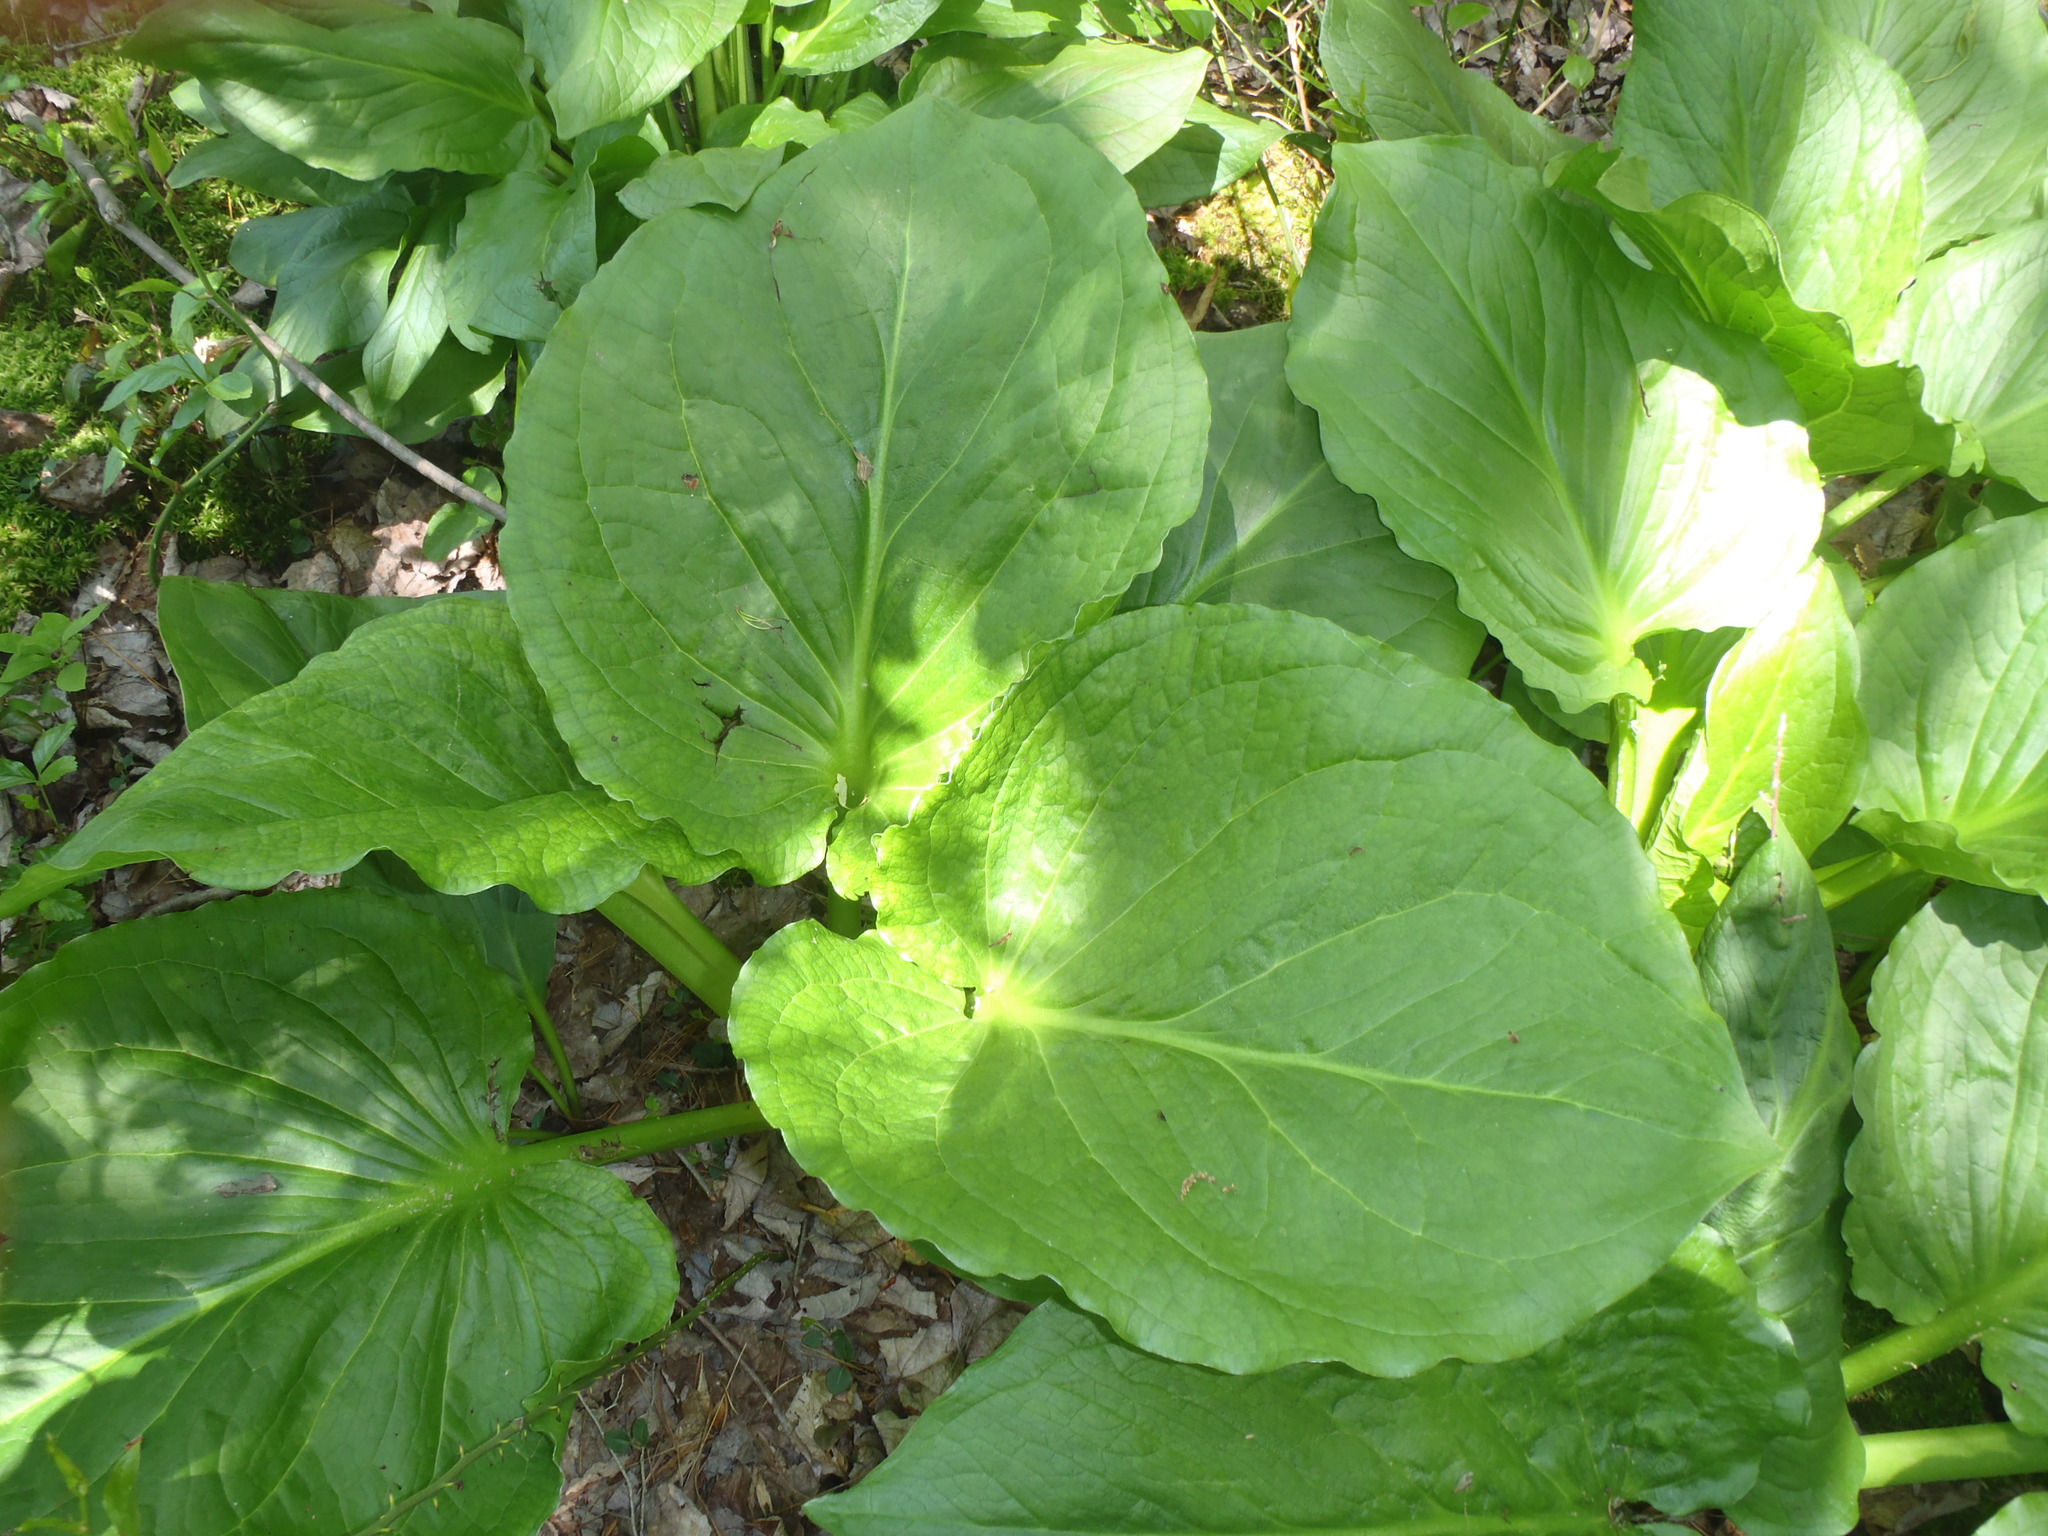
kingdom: Plantae
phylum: Tracheophyta
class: Liliopsida
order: Alismatales
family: Araceae
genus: Symplocarpus
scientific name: Symplocarpus foetidus
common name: Eastern skunk cabbage
